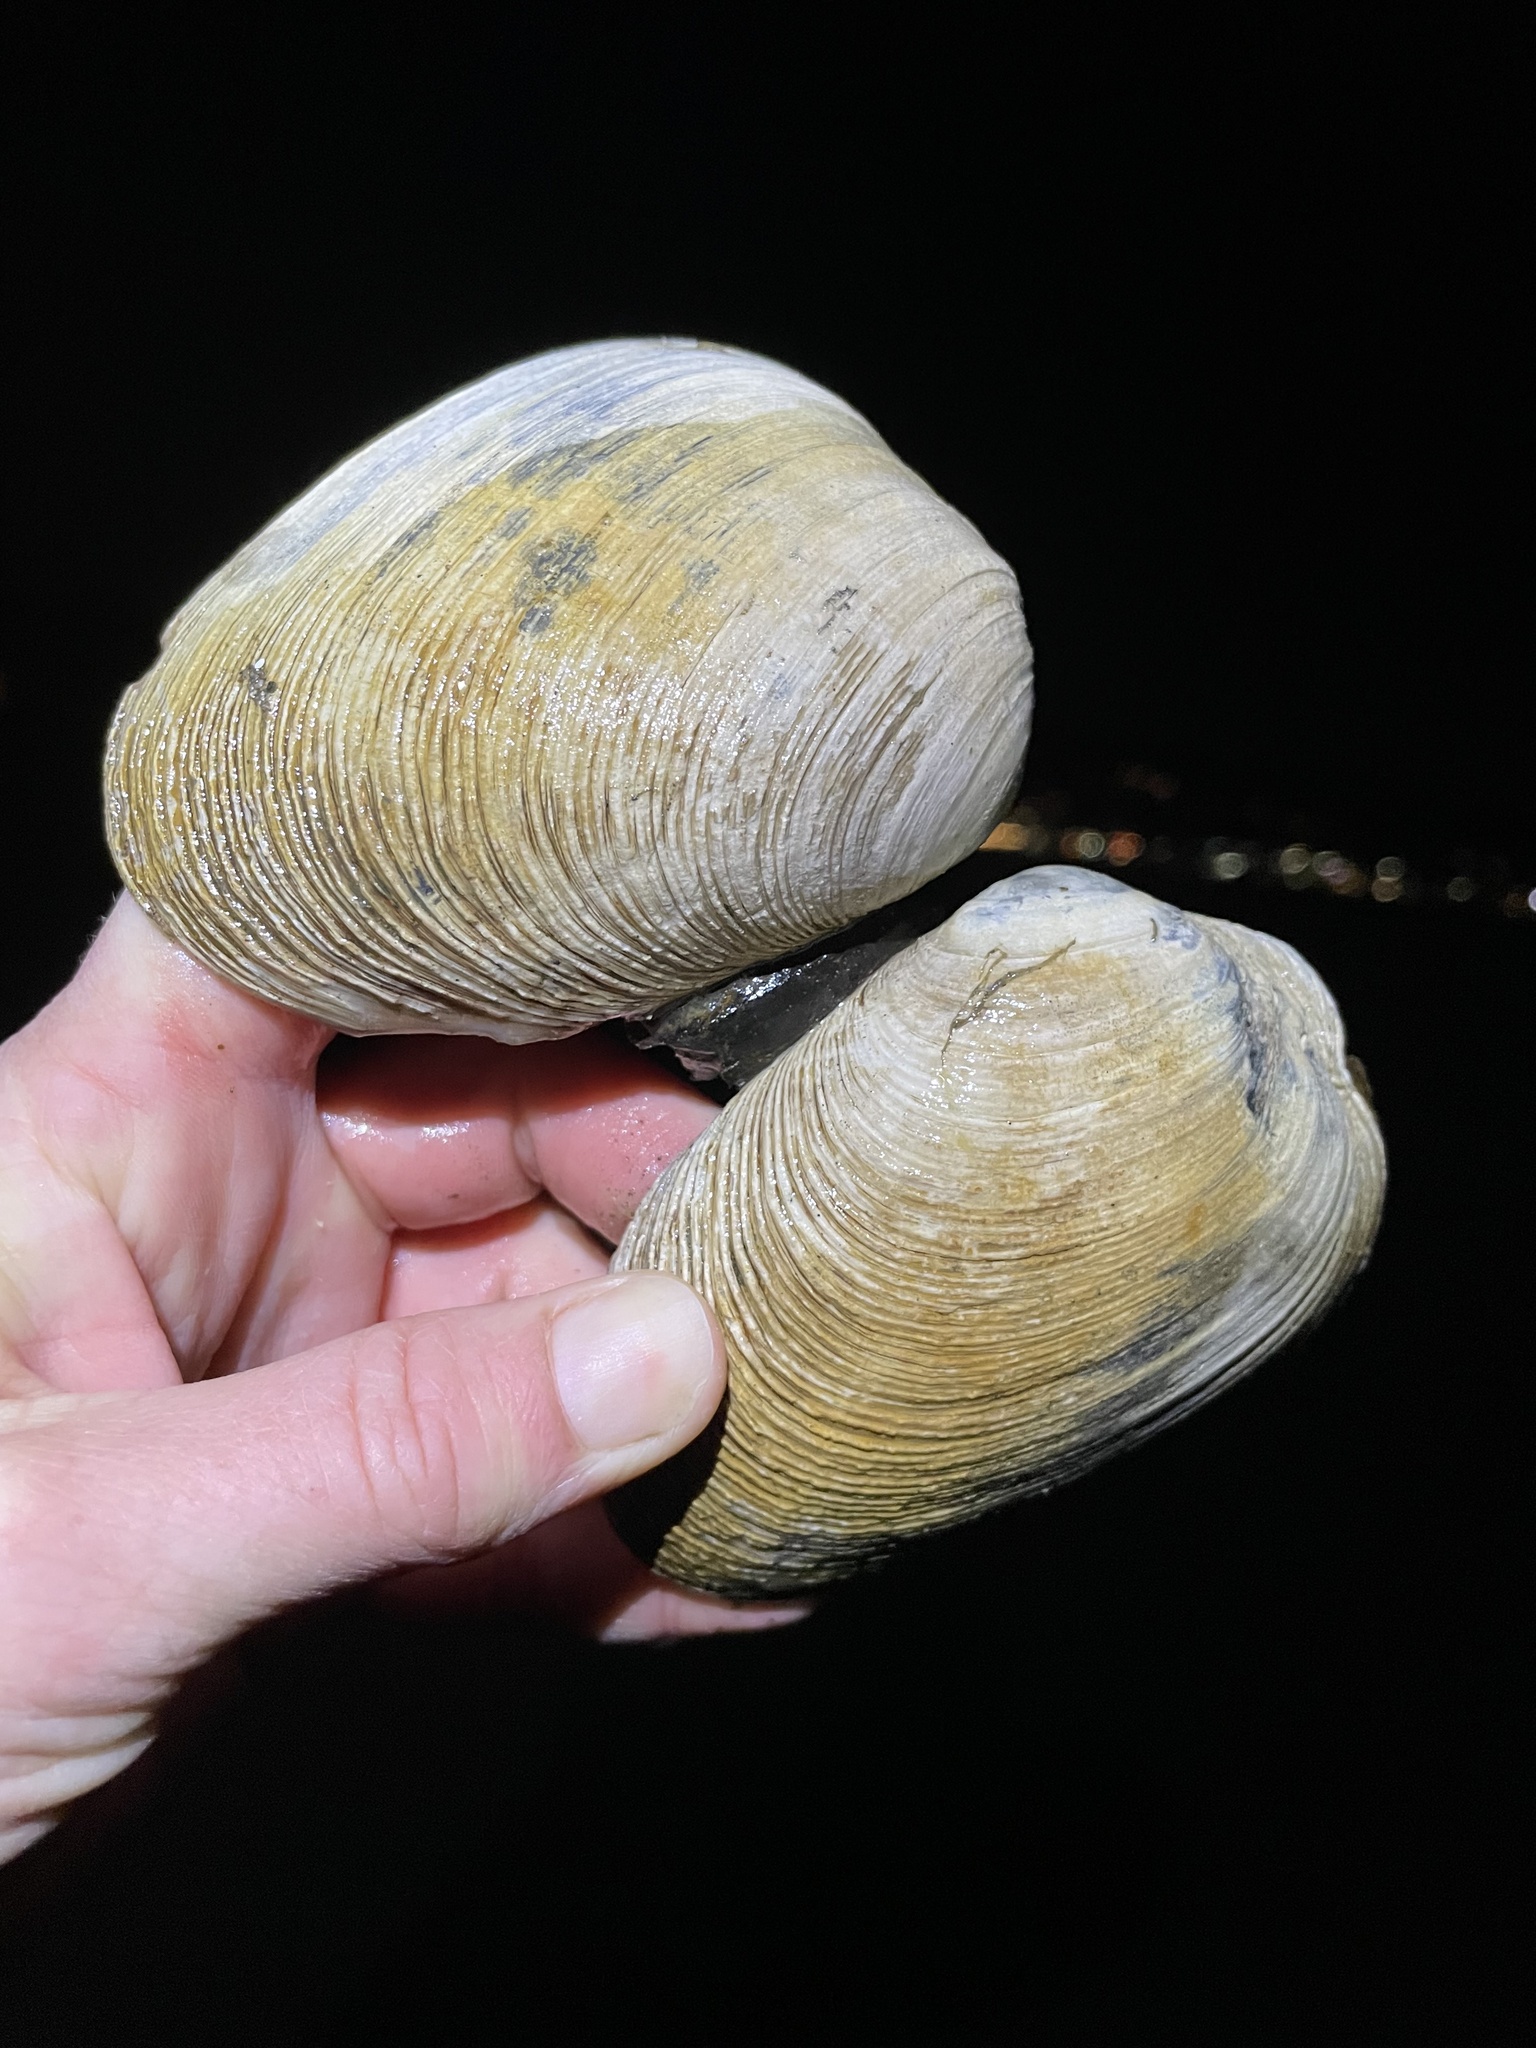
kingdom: Animalia
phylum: Mollusca
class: Bivalvia
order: Venerida
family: Veneridae
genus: Saxidomus
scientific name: Saxidomus nuttalli
